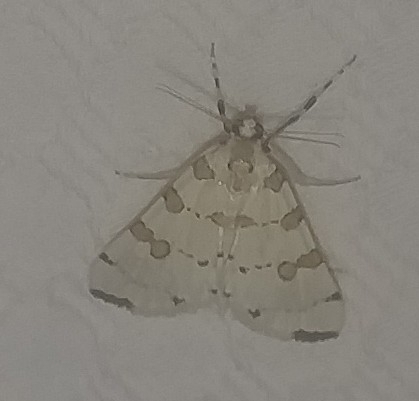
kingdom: Animalia
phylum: Arthropoda
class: Insecta
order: Lepidoptera
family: Crambidae
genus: Conchylodes
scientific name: Conchylodes
